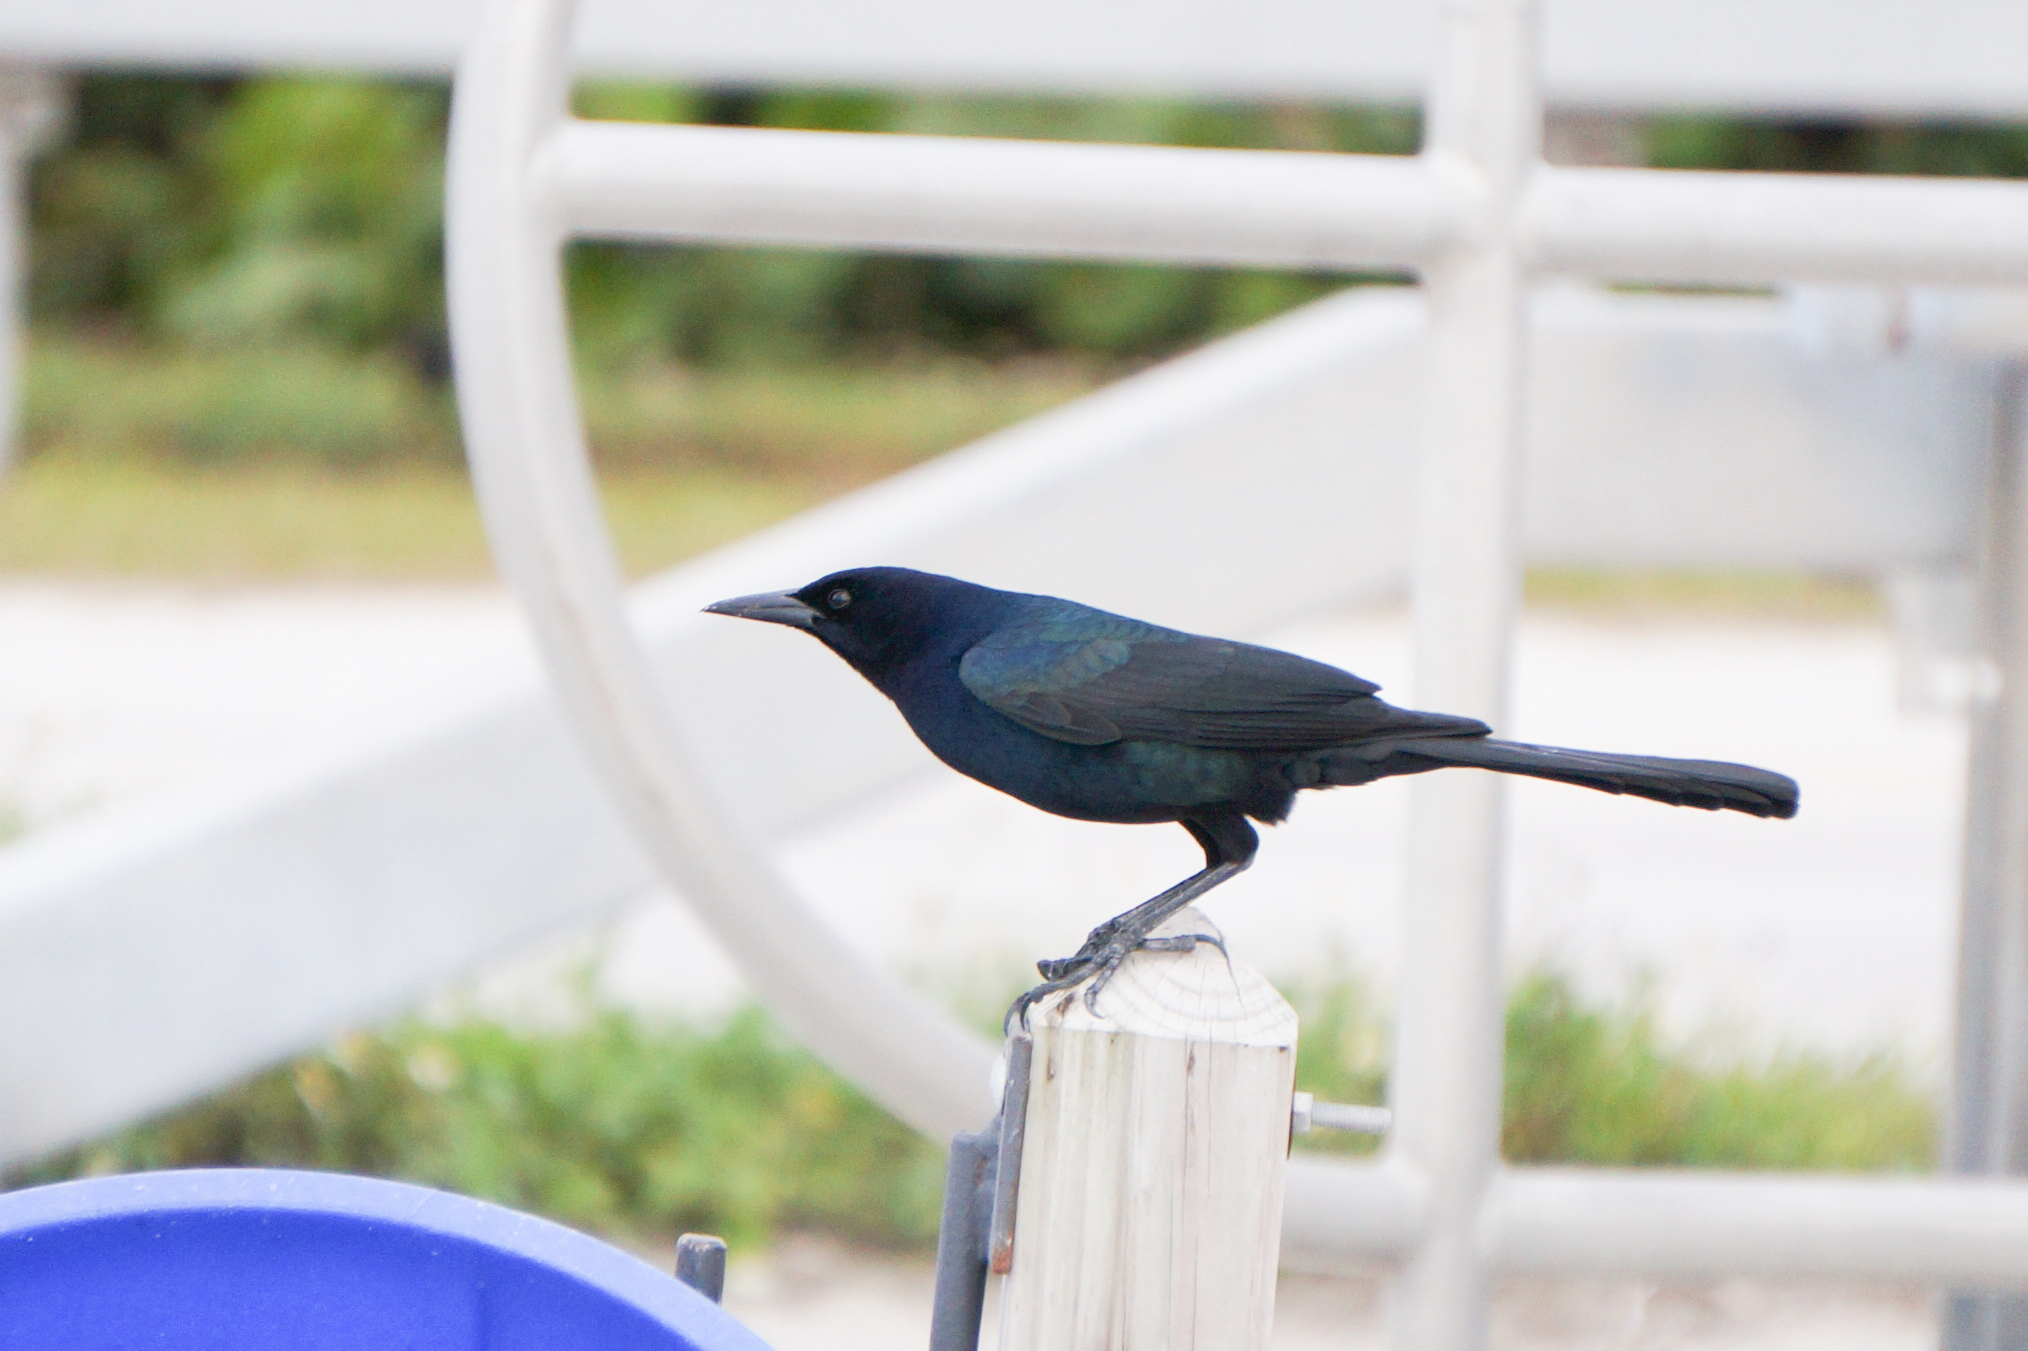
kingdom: Animalia
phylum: Chordata
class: Aves
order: Passeriformes
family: Icteridae
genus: Quiscalus
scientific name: Quiscalus major
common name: Boat-tailed grackle
